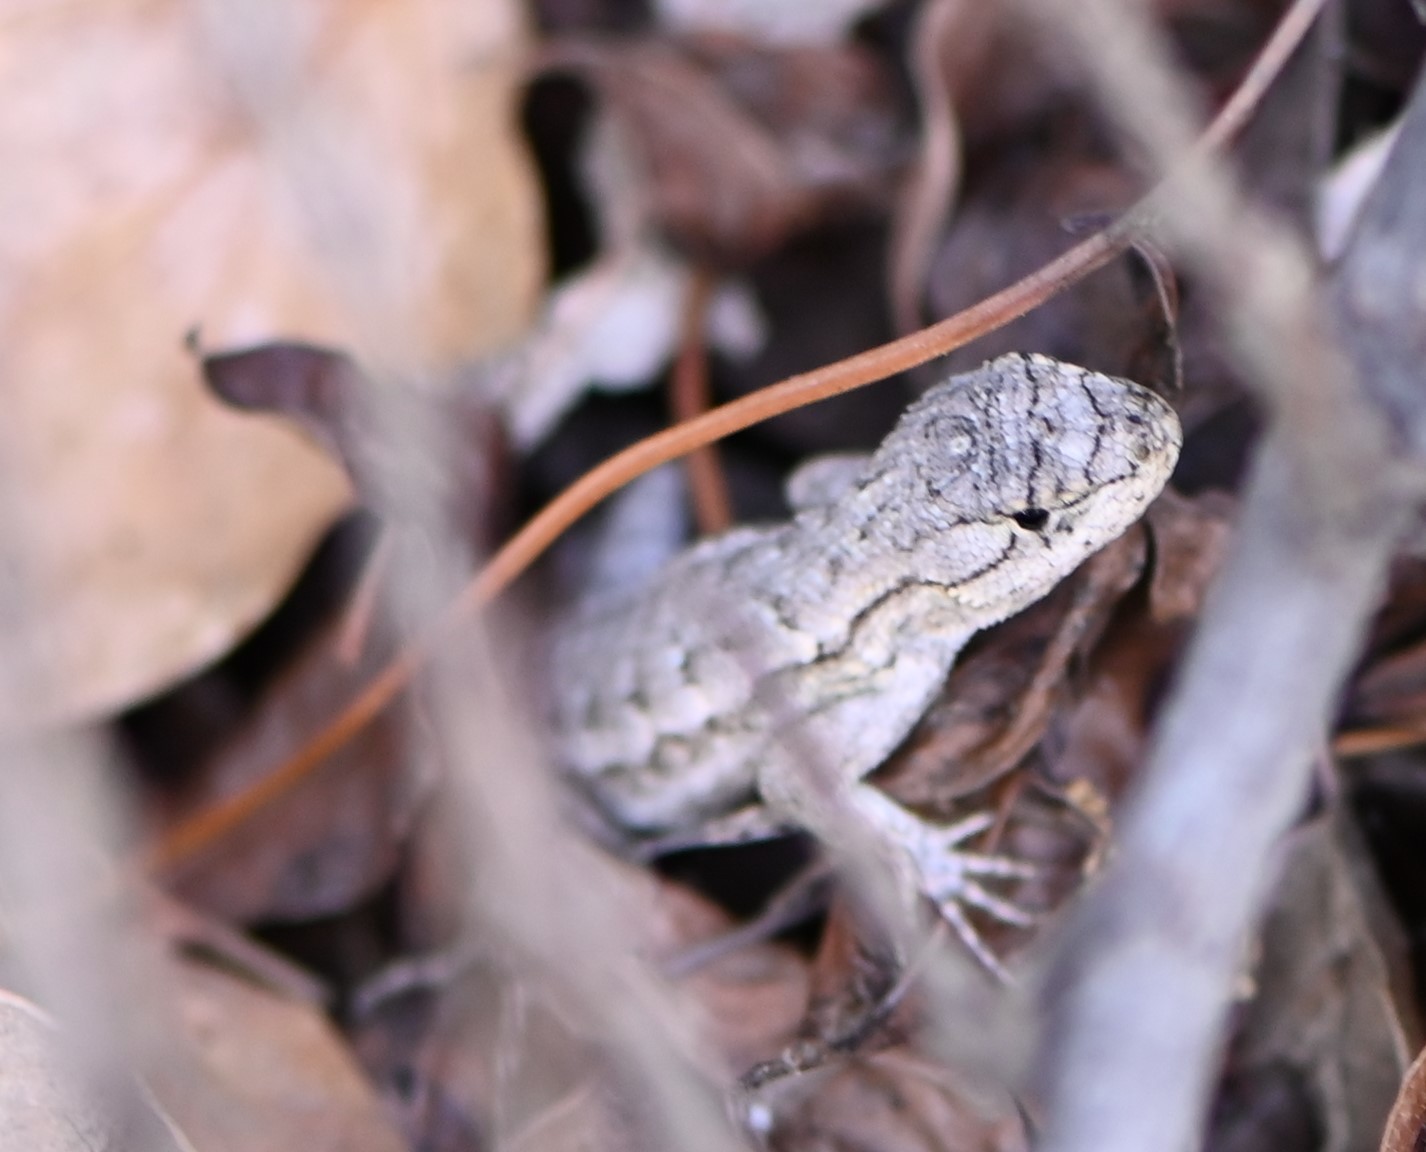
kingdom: Animalia
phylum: Chordata
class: Squamata
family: Phrynosomatidae
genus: Sceloporus
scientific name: Sceloporus occidentalis
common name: Western fence lizard
